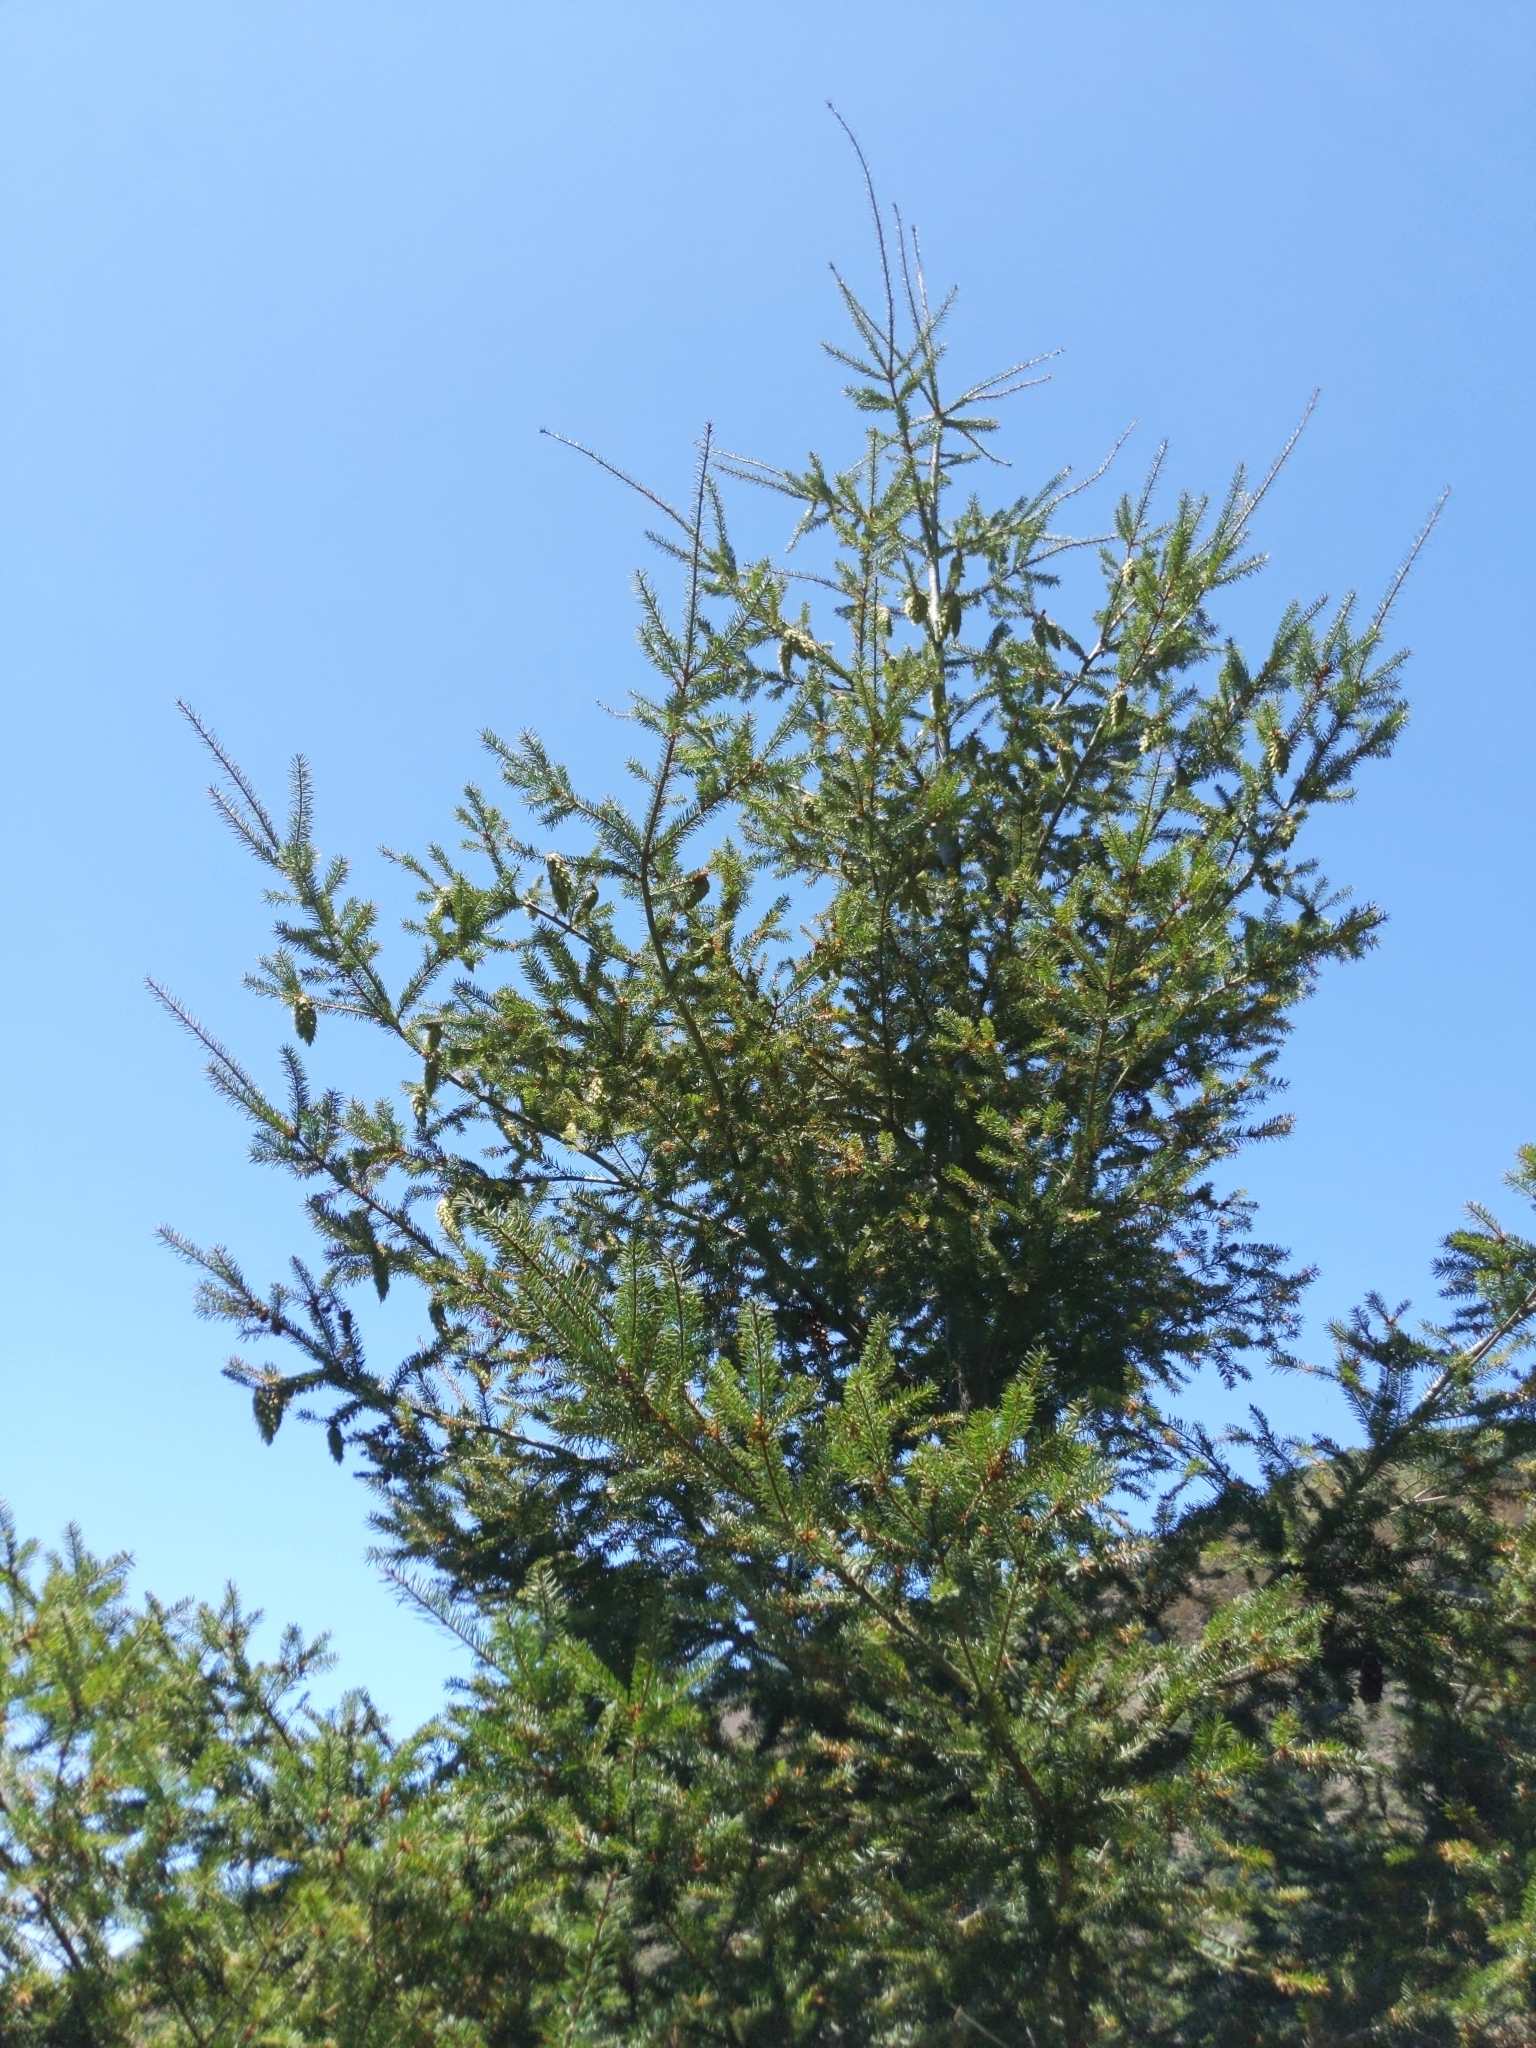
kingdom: Plantae
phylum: Tracheophyta
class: Pinopsida
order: Pinales
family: Pinaceae
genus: Pseudotsuga
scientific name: Pseudotsuga menziesii
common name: Douglas fir
